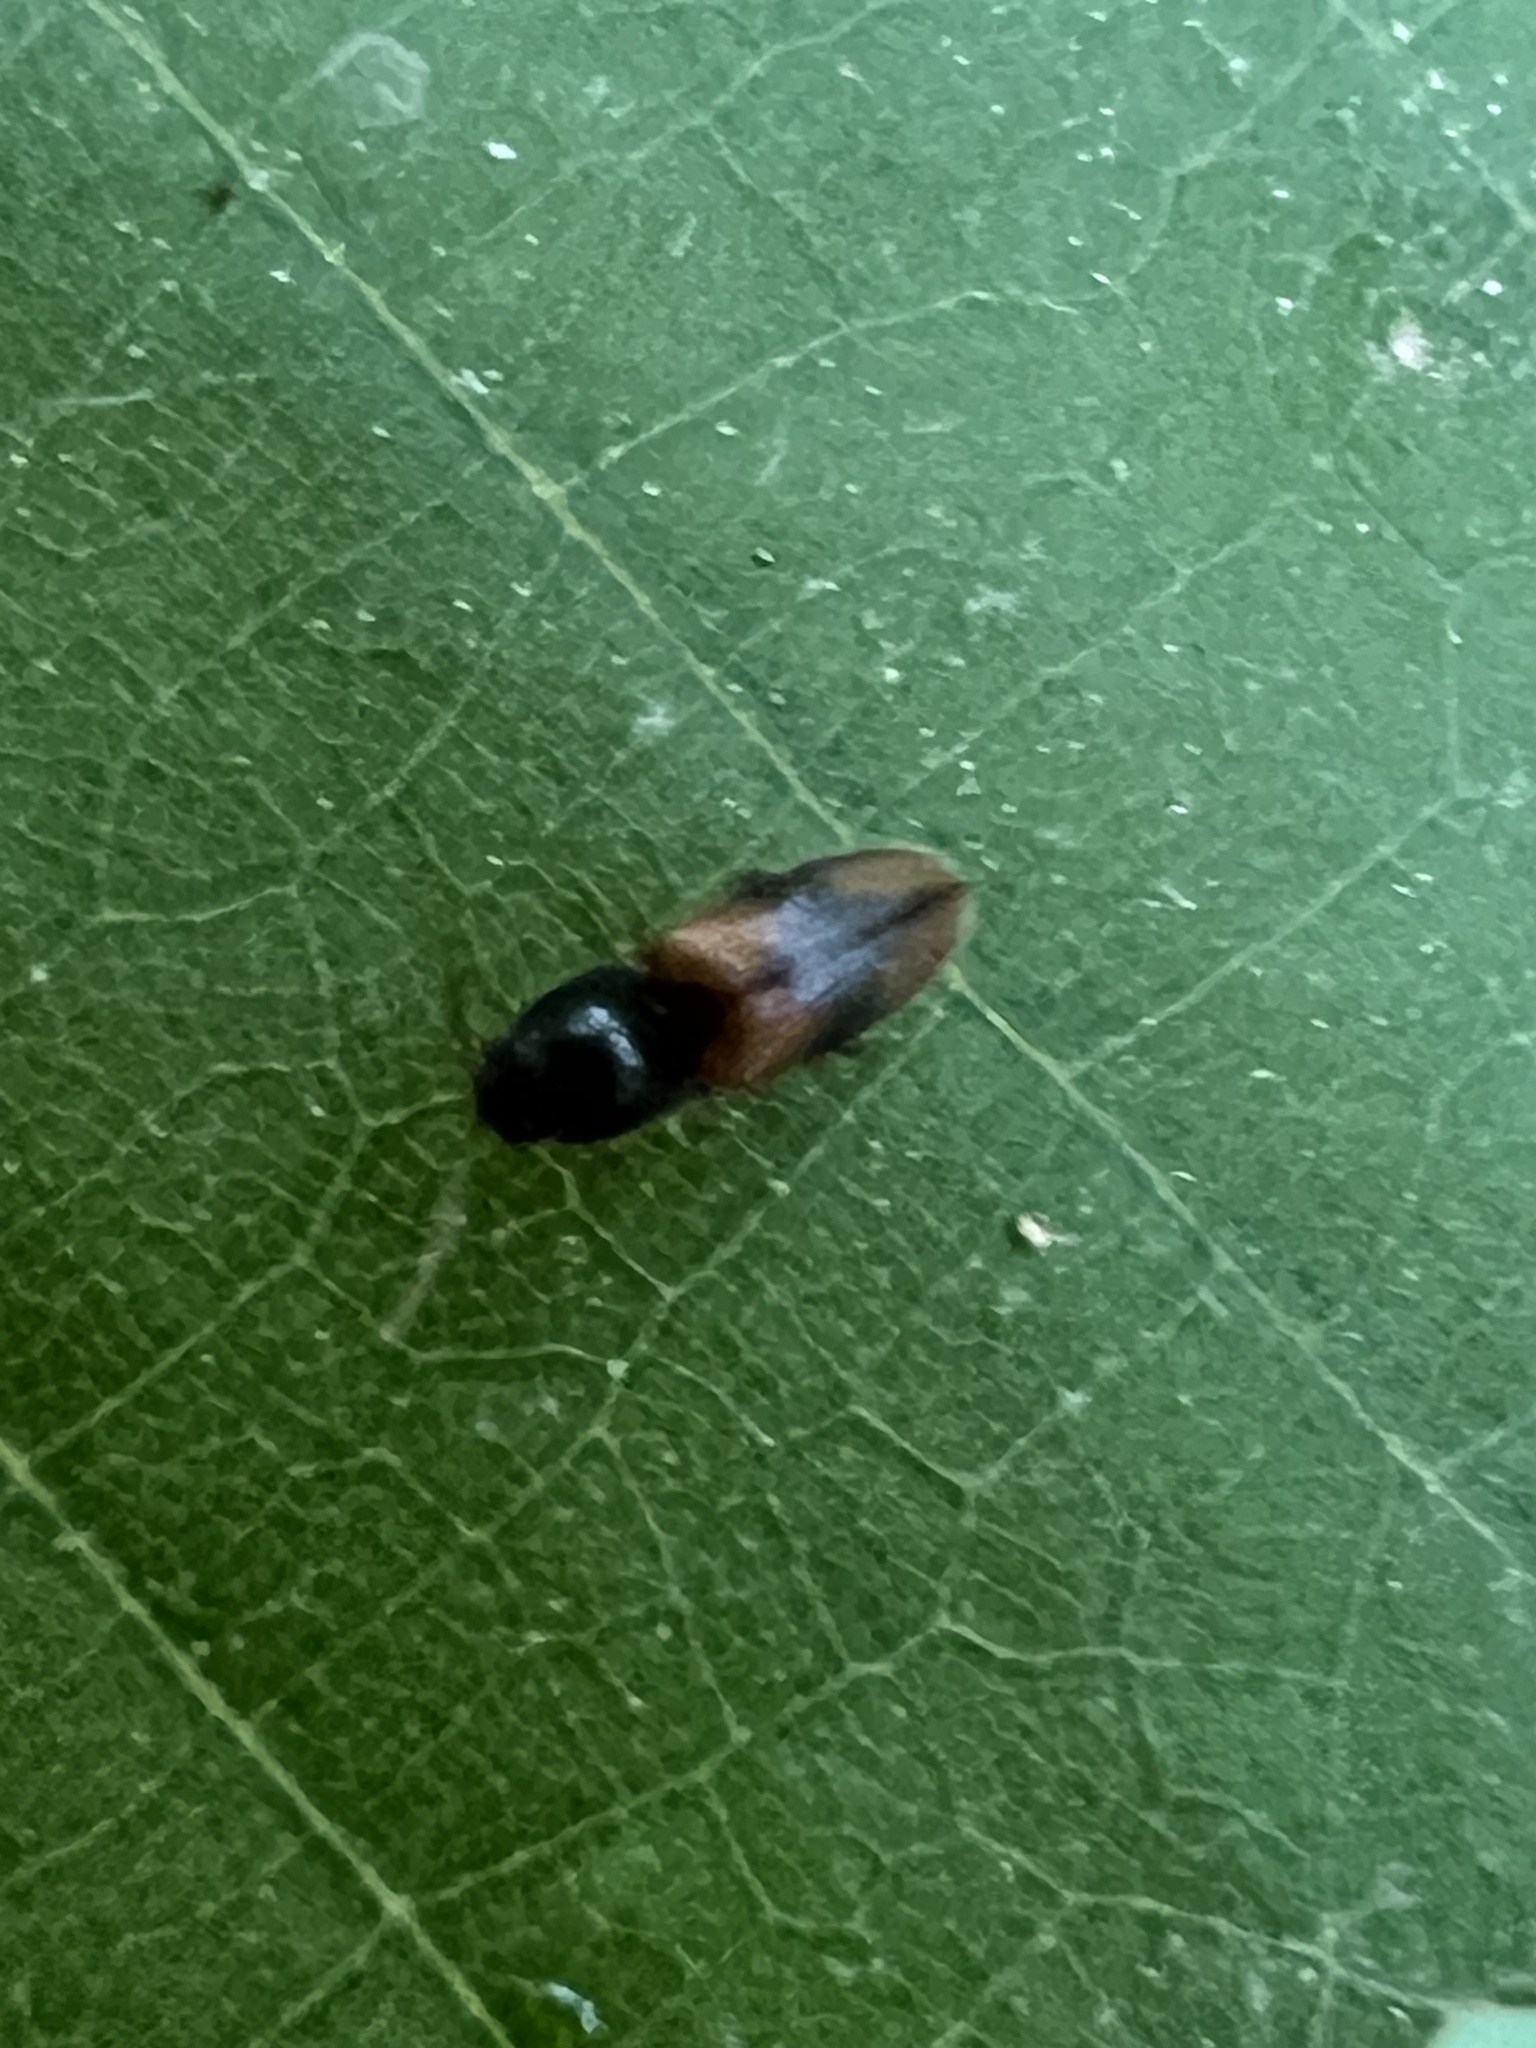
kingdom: Animalia
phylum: Arthropoda
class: Insecta
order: Coleoptera
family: Elateridae
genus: Horistonotus
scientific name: Horistonotus curiatus
